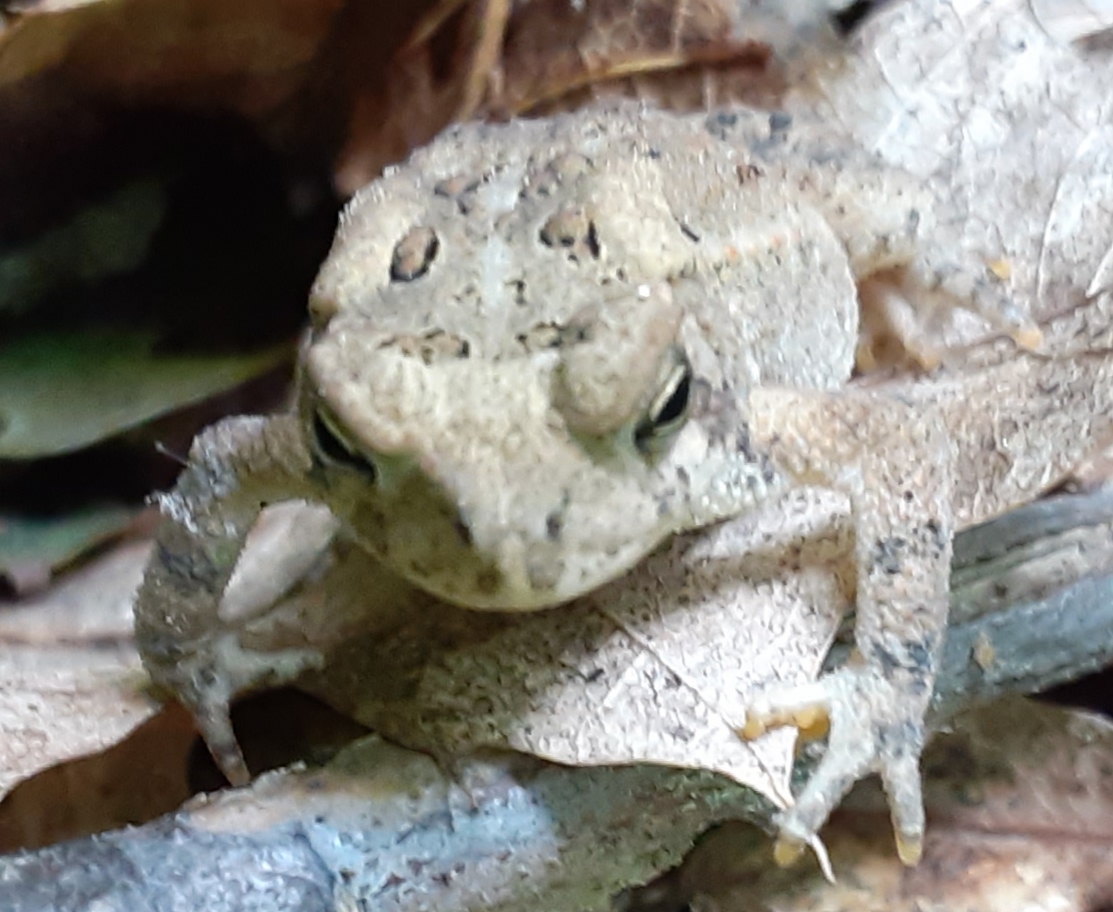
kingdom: Animalia
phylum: Chordata
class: Amphibia
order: Anura
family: Bufonidae
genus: Anaxyrus
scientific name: Anaxyrus americanus
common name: American toad
